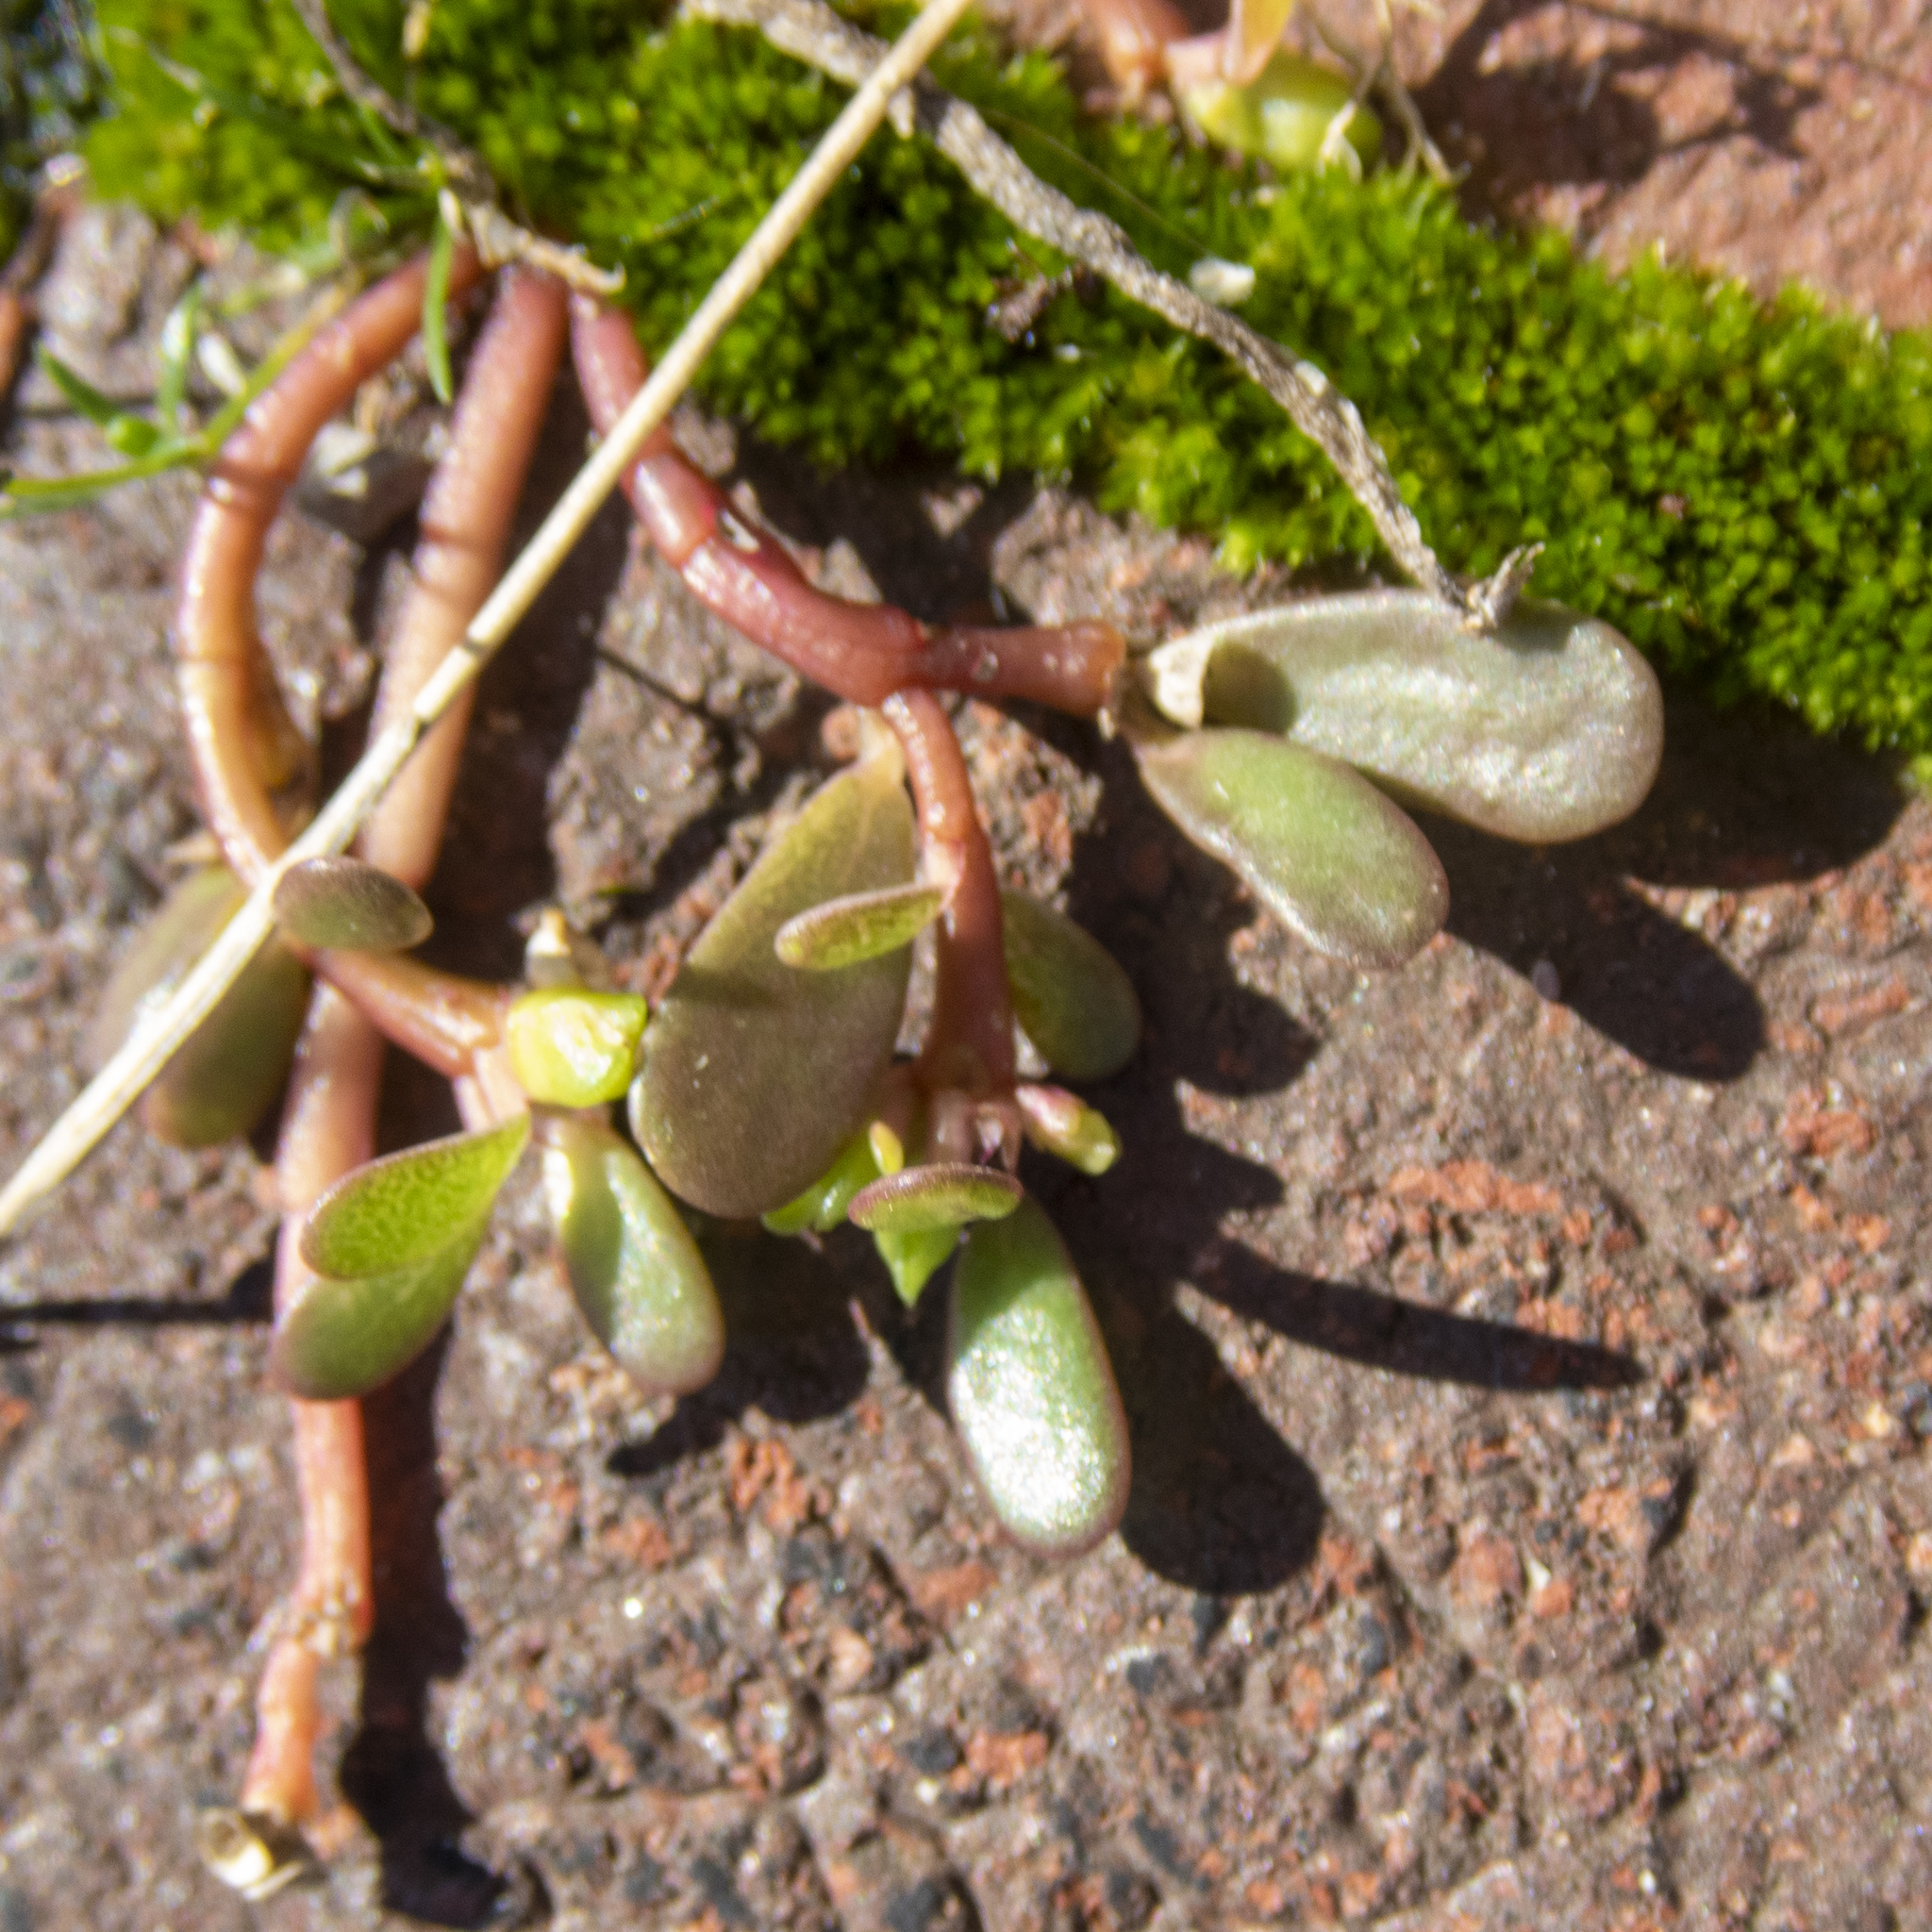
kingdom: Plantae
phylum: Tracheophyta
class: Magnoliopsida
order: Caryophyllales
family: Portulacaceae
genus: Portulaca
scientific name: Portulaca oleracea
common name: Common purslane
